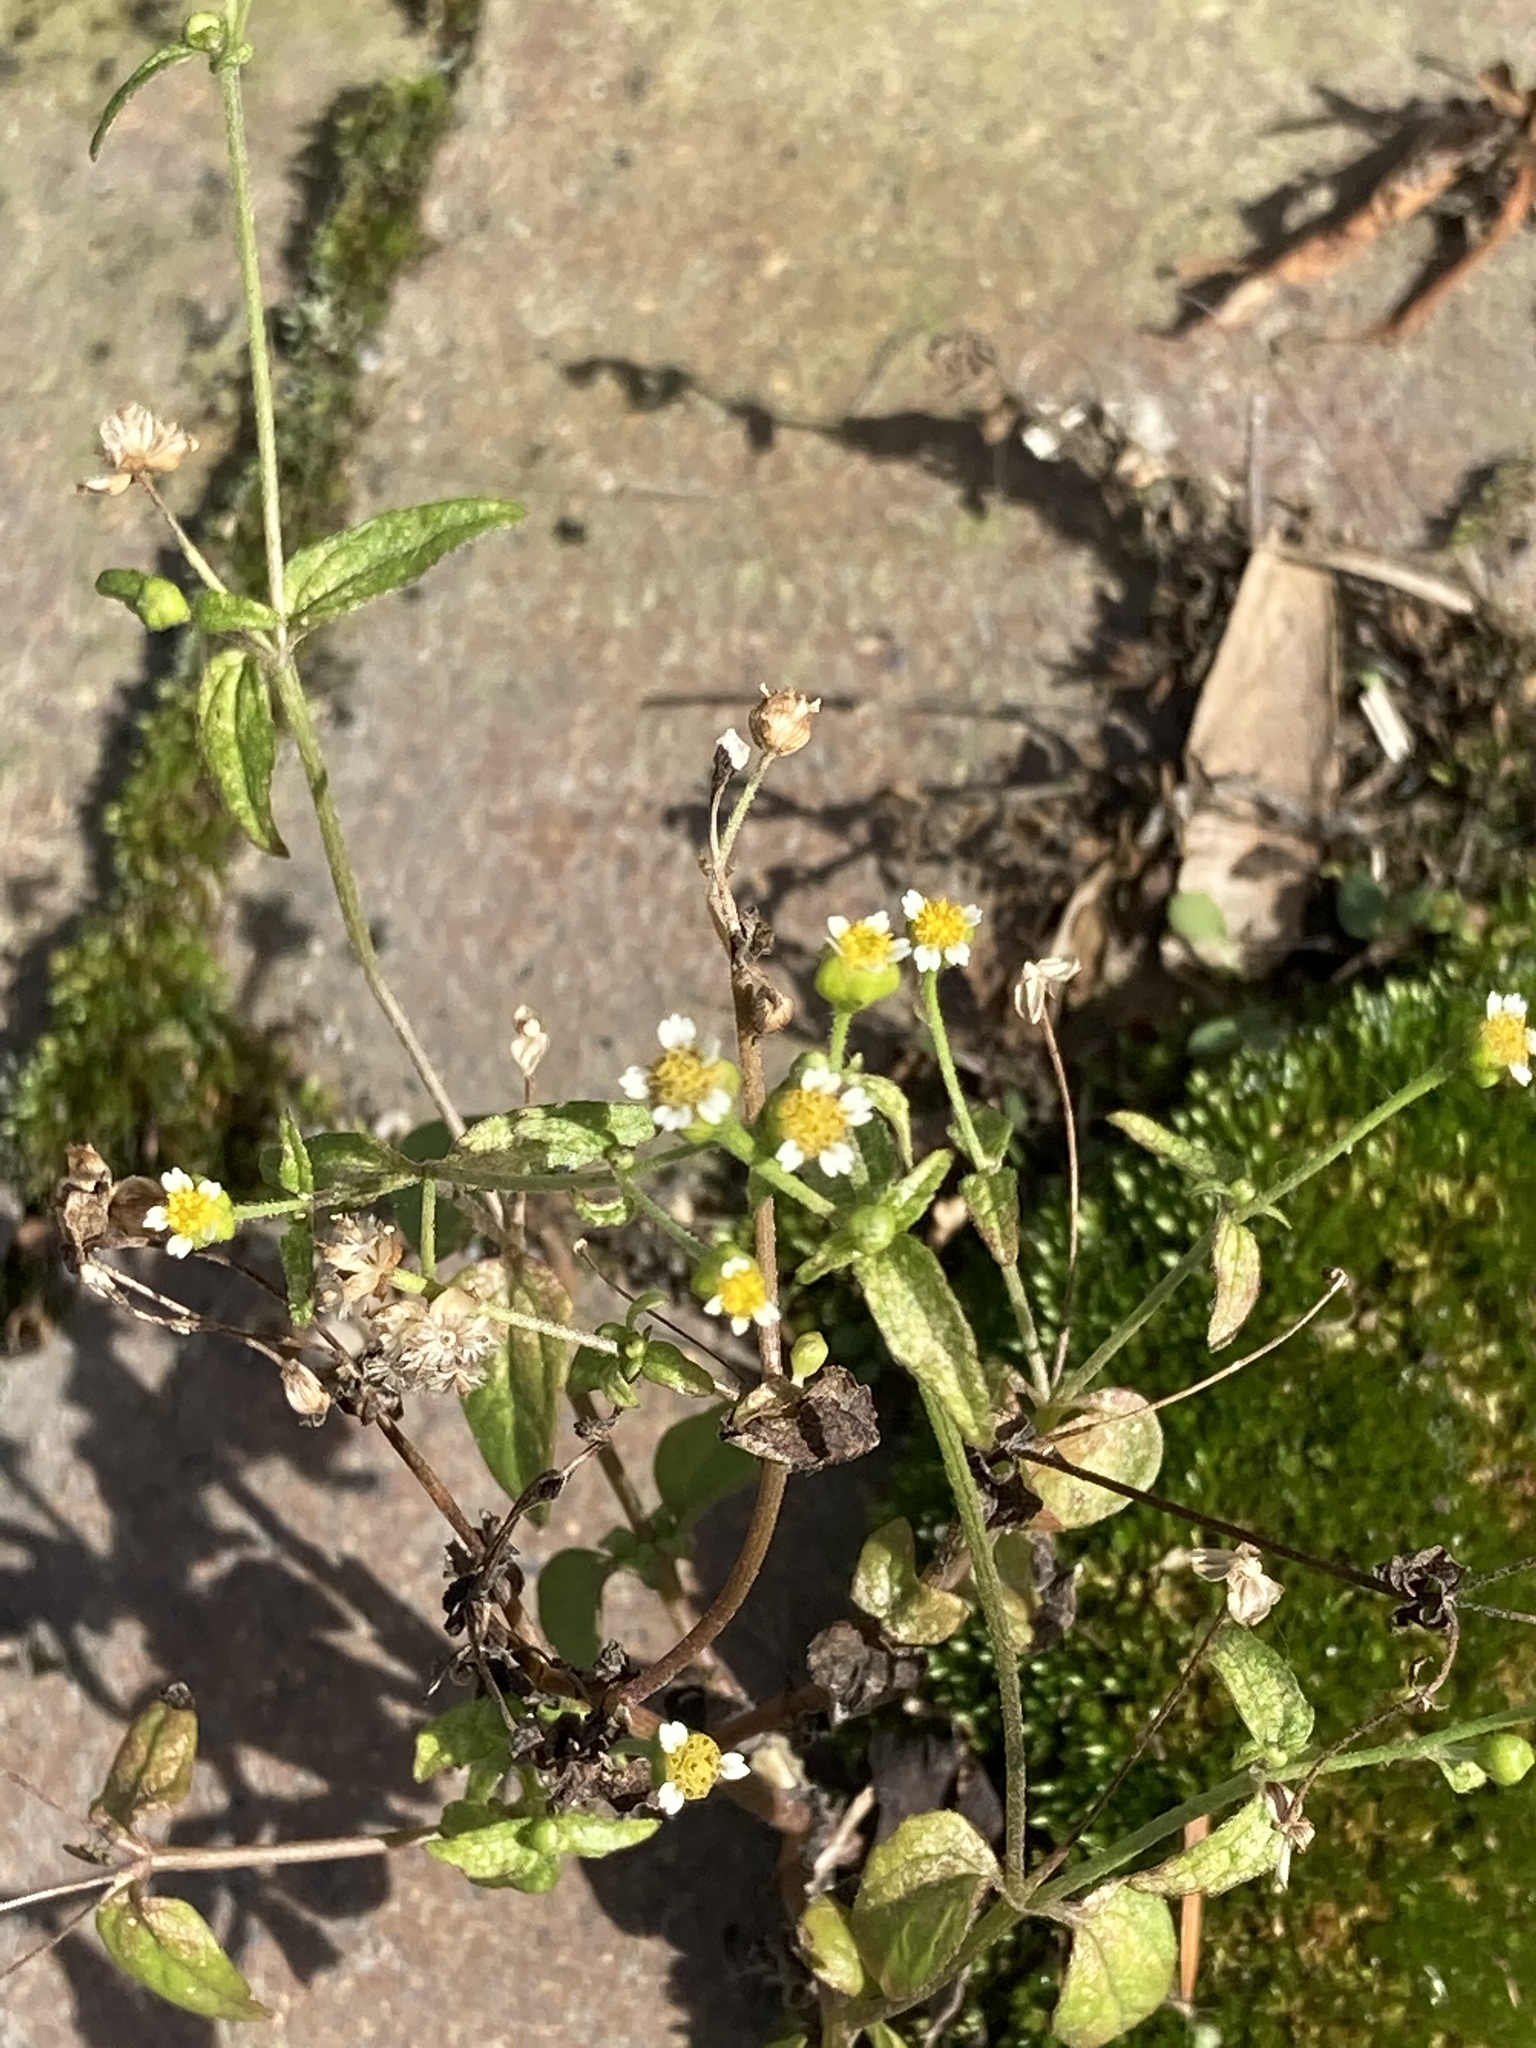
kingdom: Plantae
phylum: Tracheophyta
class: Magnoliopsida
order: Asterales
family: Asteraceae
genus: Galinsoga
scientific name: Galinsoga parviflora
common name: Gallant soldier
